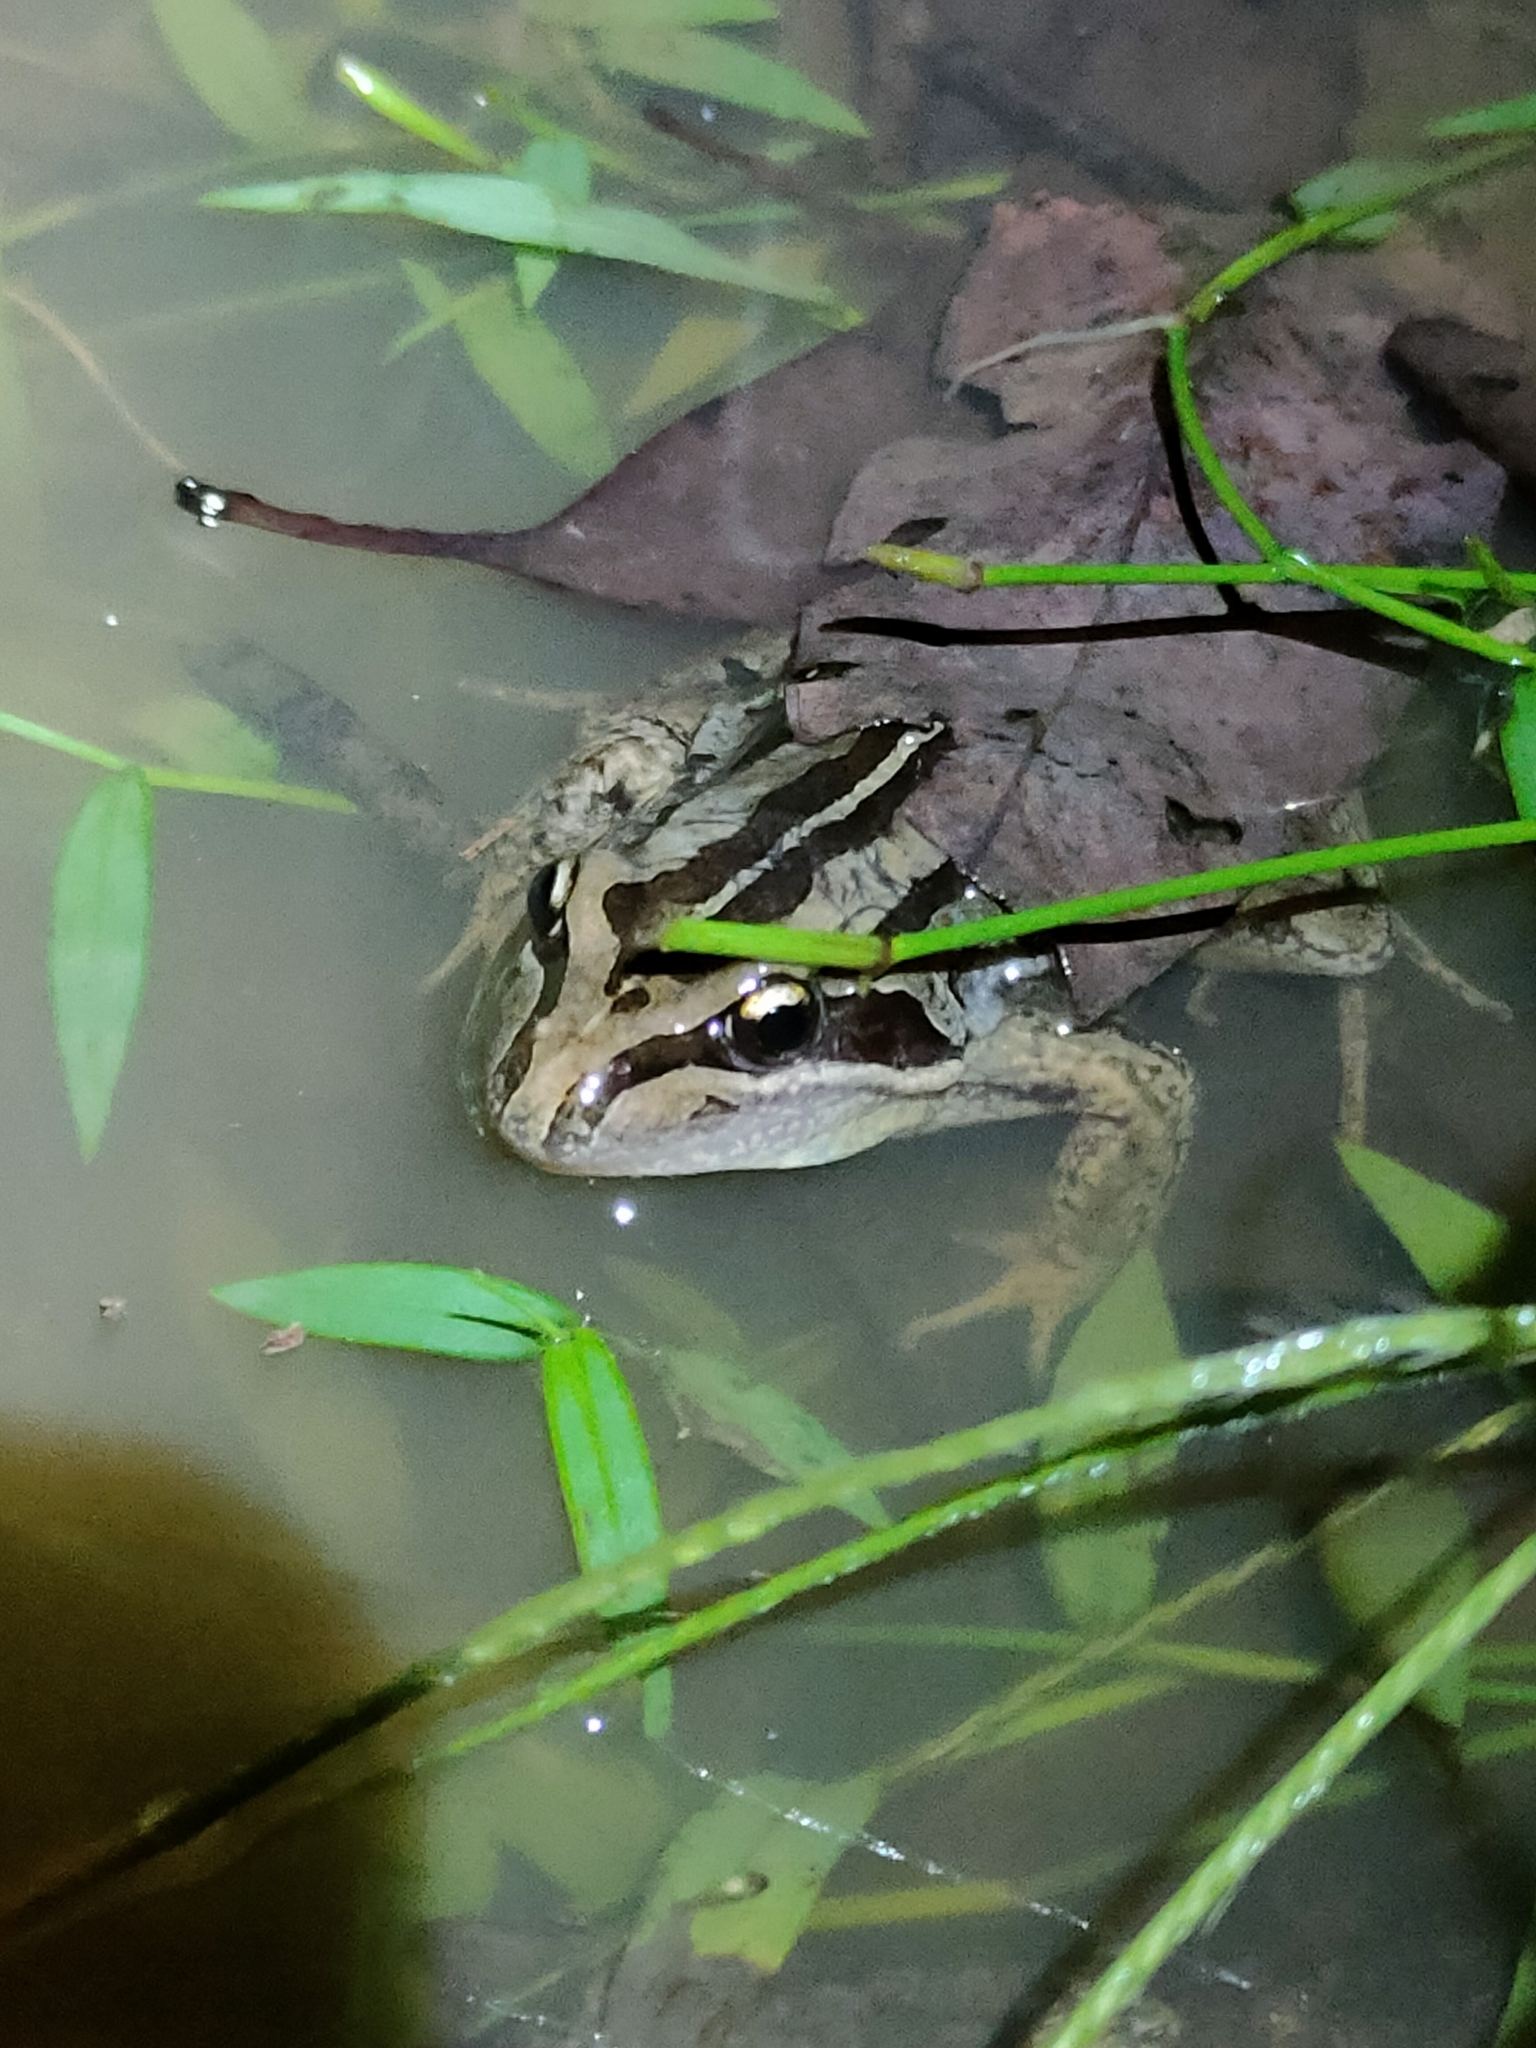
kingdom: Animalia
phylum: Chordata
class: Amphibia
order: Anura
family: Limnodynastidae
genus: Limnodynastes
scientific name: Limnodynastes peronii
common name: Brown frog
